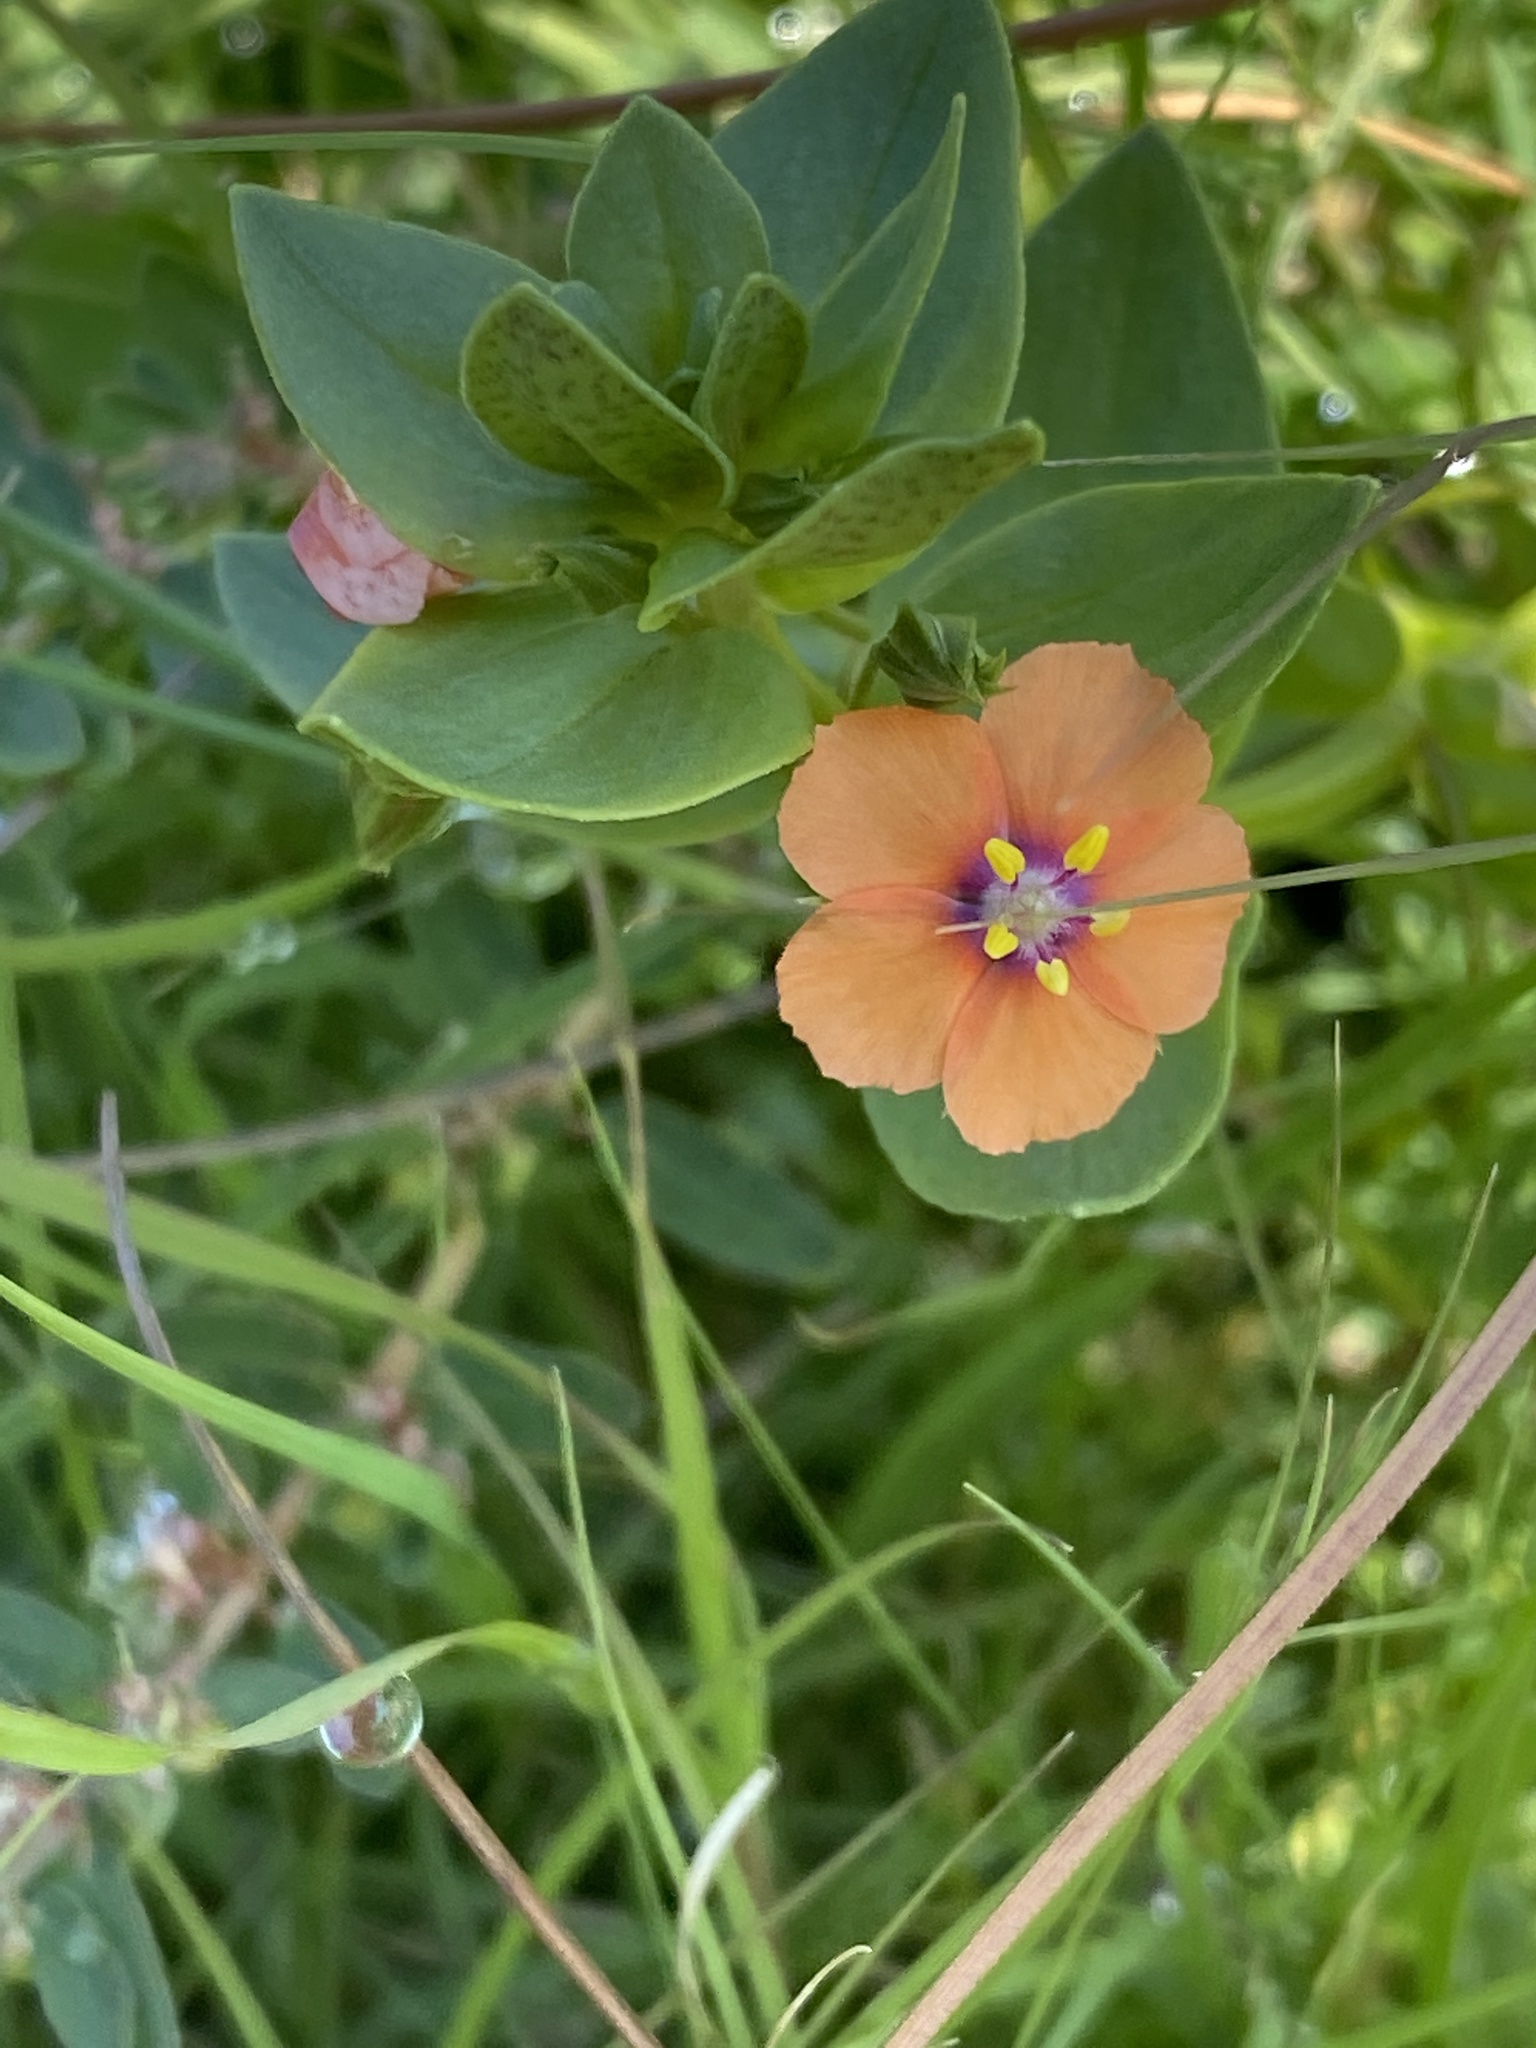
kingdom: Plantae
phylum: Tracheophyta
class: Magnoliopsida
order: Ericales
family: Primulaceae
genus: Lysimachia
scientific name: Lysimachia arvensis
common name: Scarlet pimpernel
